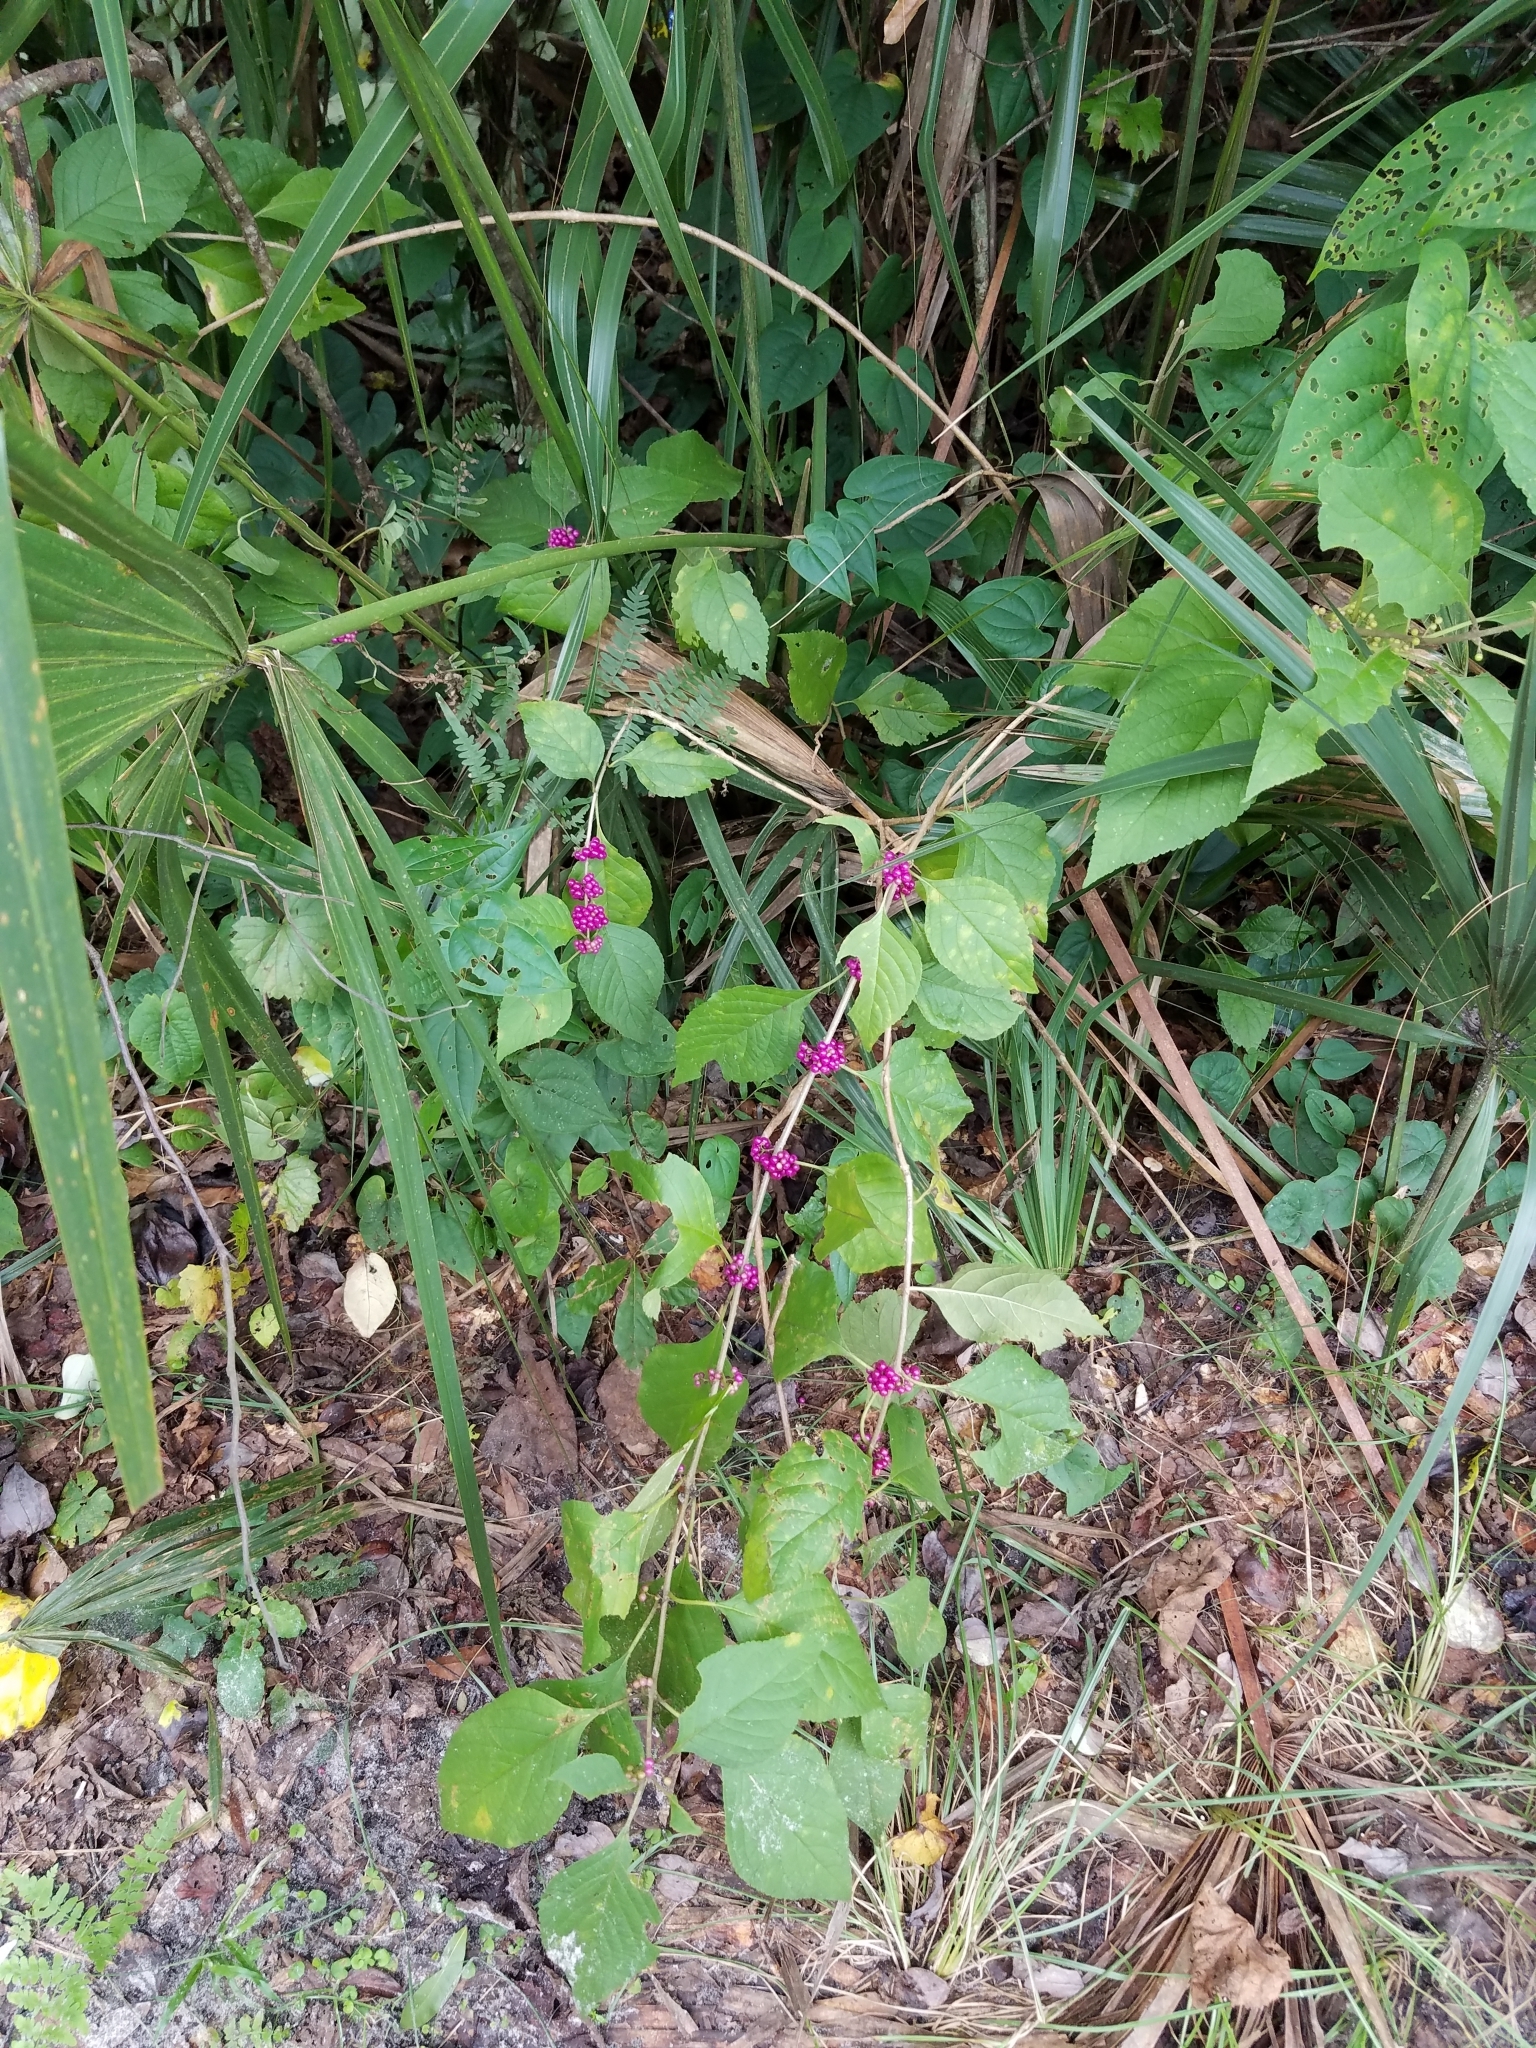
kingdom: Plantae
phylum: Tracheophyta
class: Magnoliopsida
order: Lamiales
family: Lamiaceae
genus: Callicarpa
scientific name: Callicarpa americana
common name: American beautyberry
